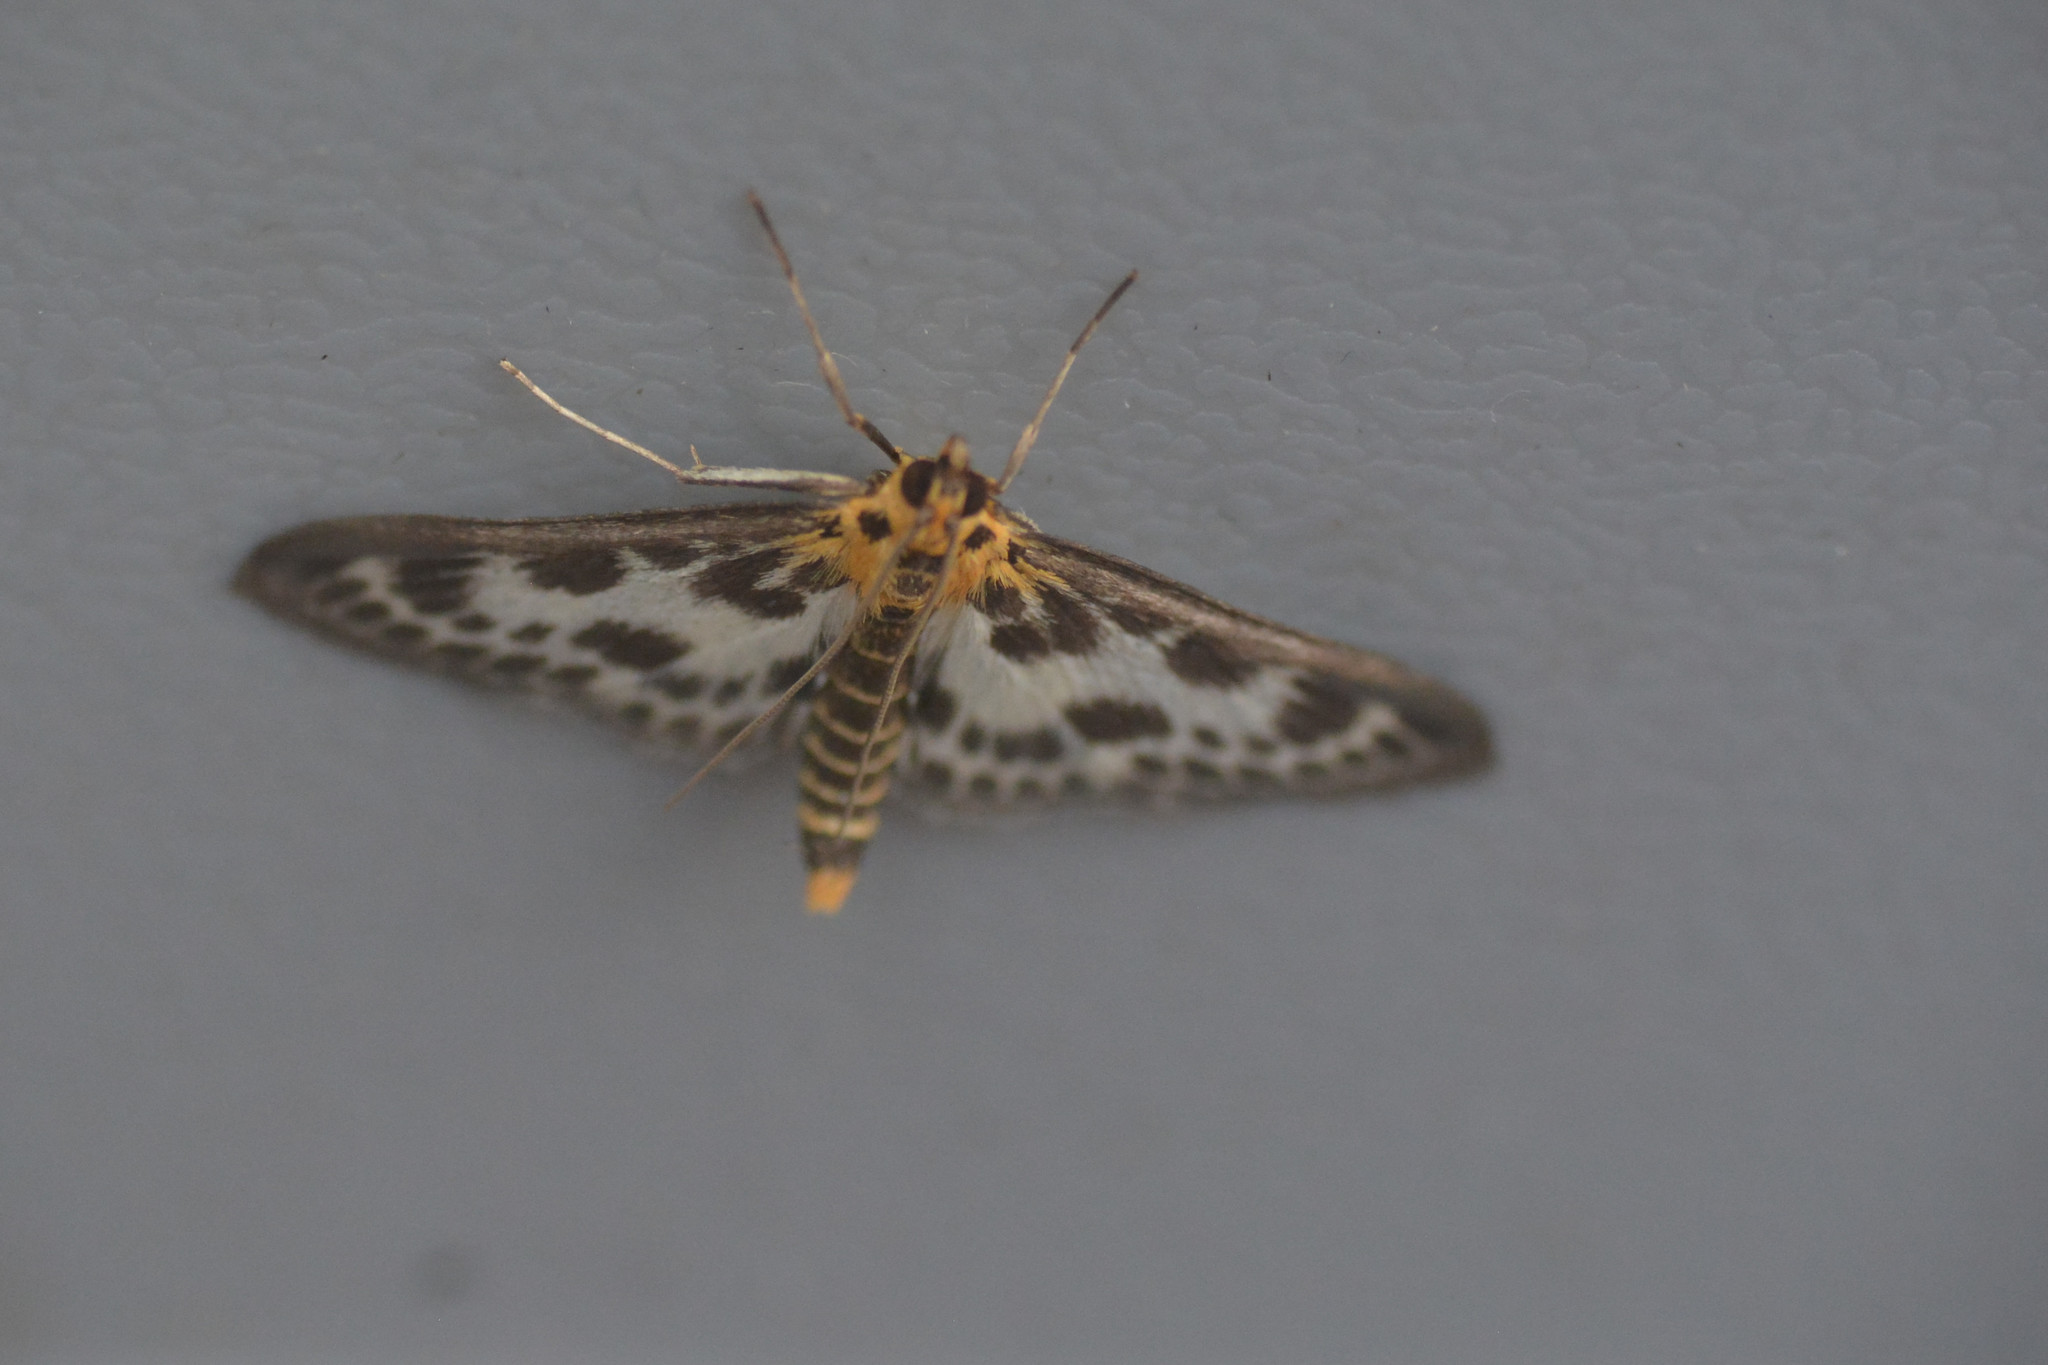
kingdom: Animalia
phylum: Arthropoda
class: Insecta
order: Lepidoptera
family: Crambidae
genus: Anania
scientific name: Anania hortulata
